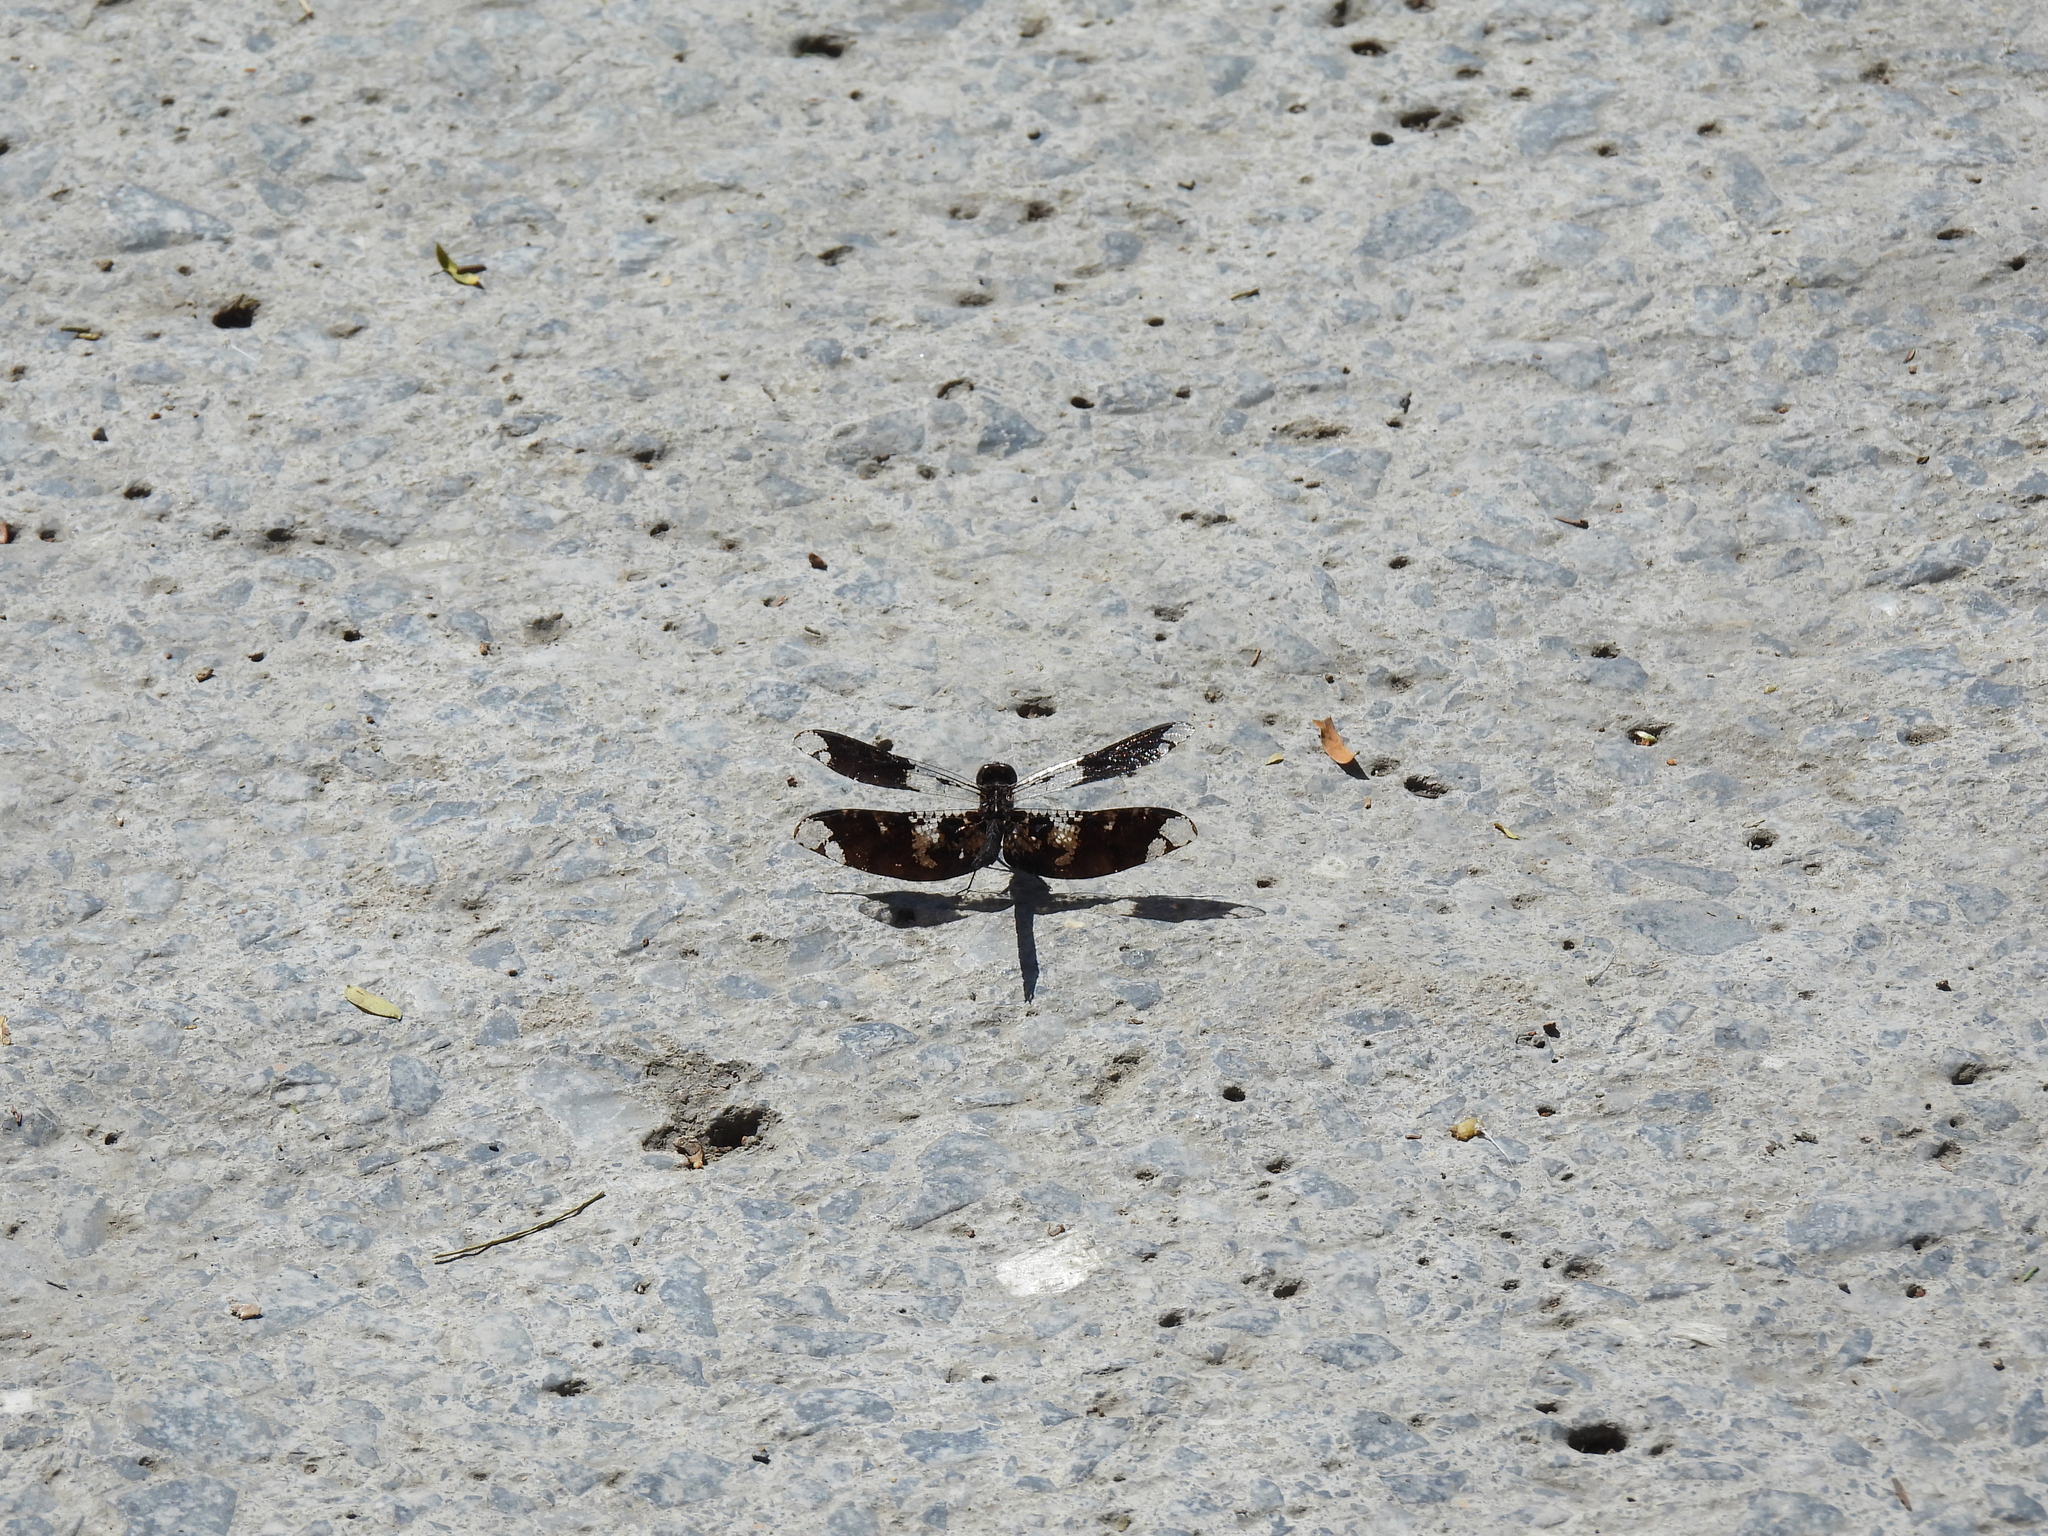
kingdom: Animalia
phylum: Arthropoda
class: Insecta
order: Odonata
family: Libellulidae
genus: Pseudoleon
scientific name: Pseudoleon superbus
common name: Filigree skimmer
